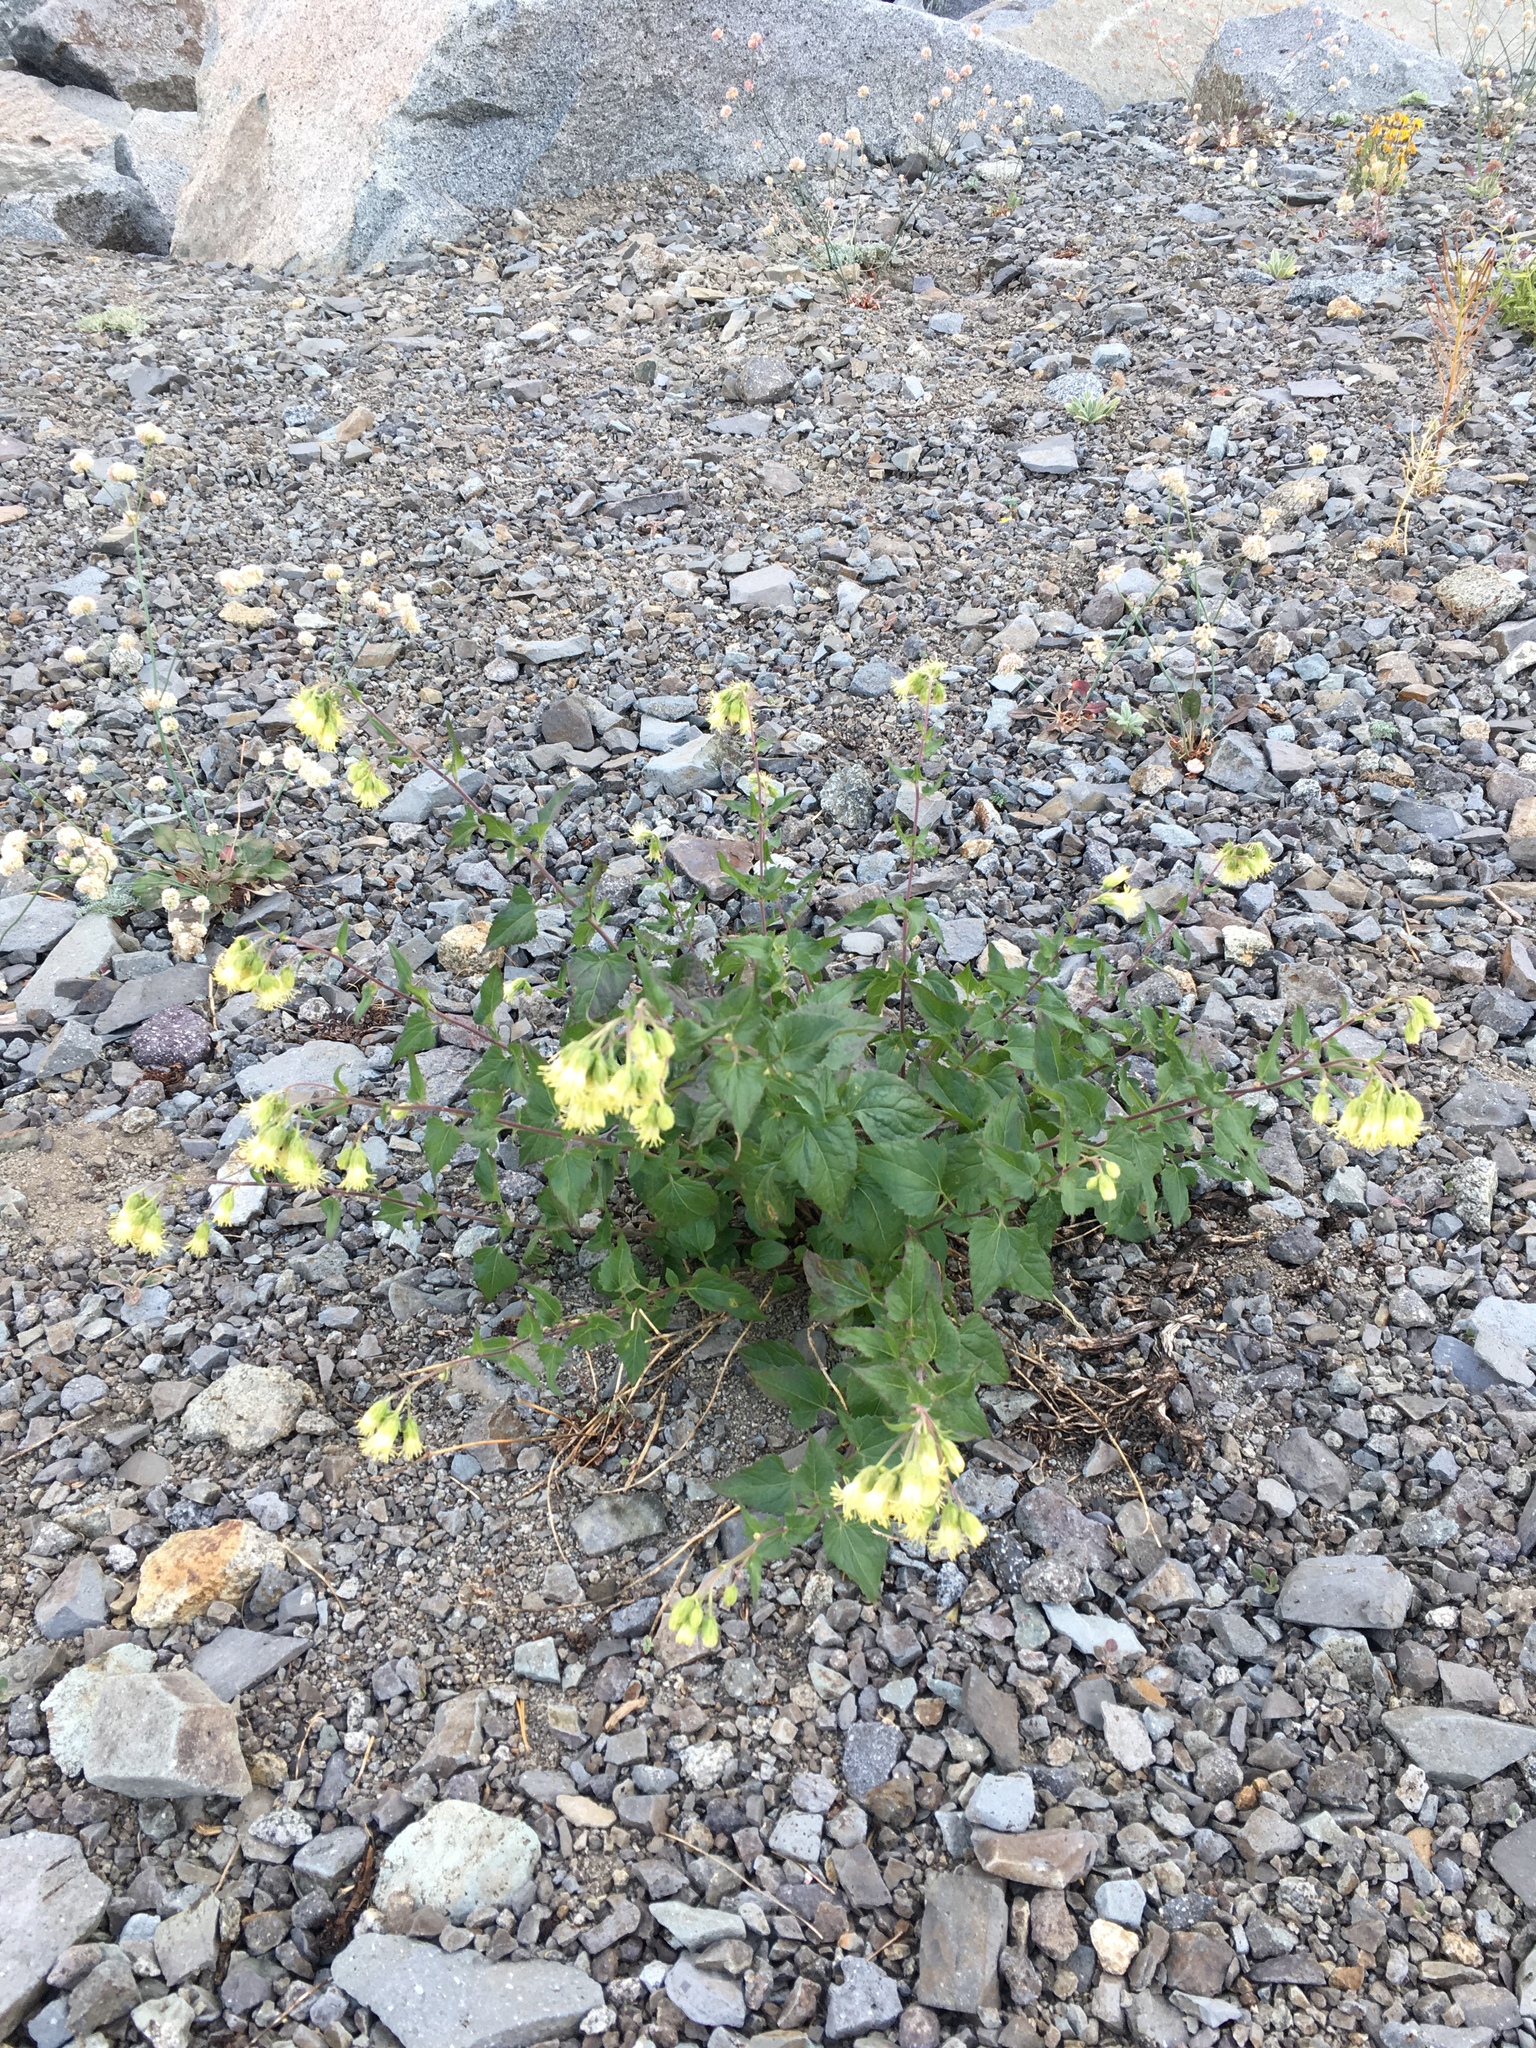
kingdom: Plantae
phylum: Tracheophyta
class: Magnoliopsida
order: Asterales
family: Asteraceae
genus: Brickellia
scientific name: Brickellia grandiflora
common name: Large-flowered brickellia
